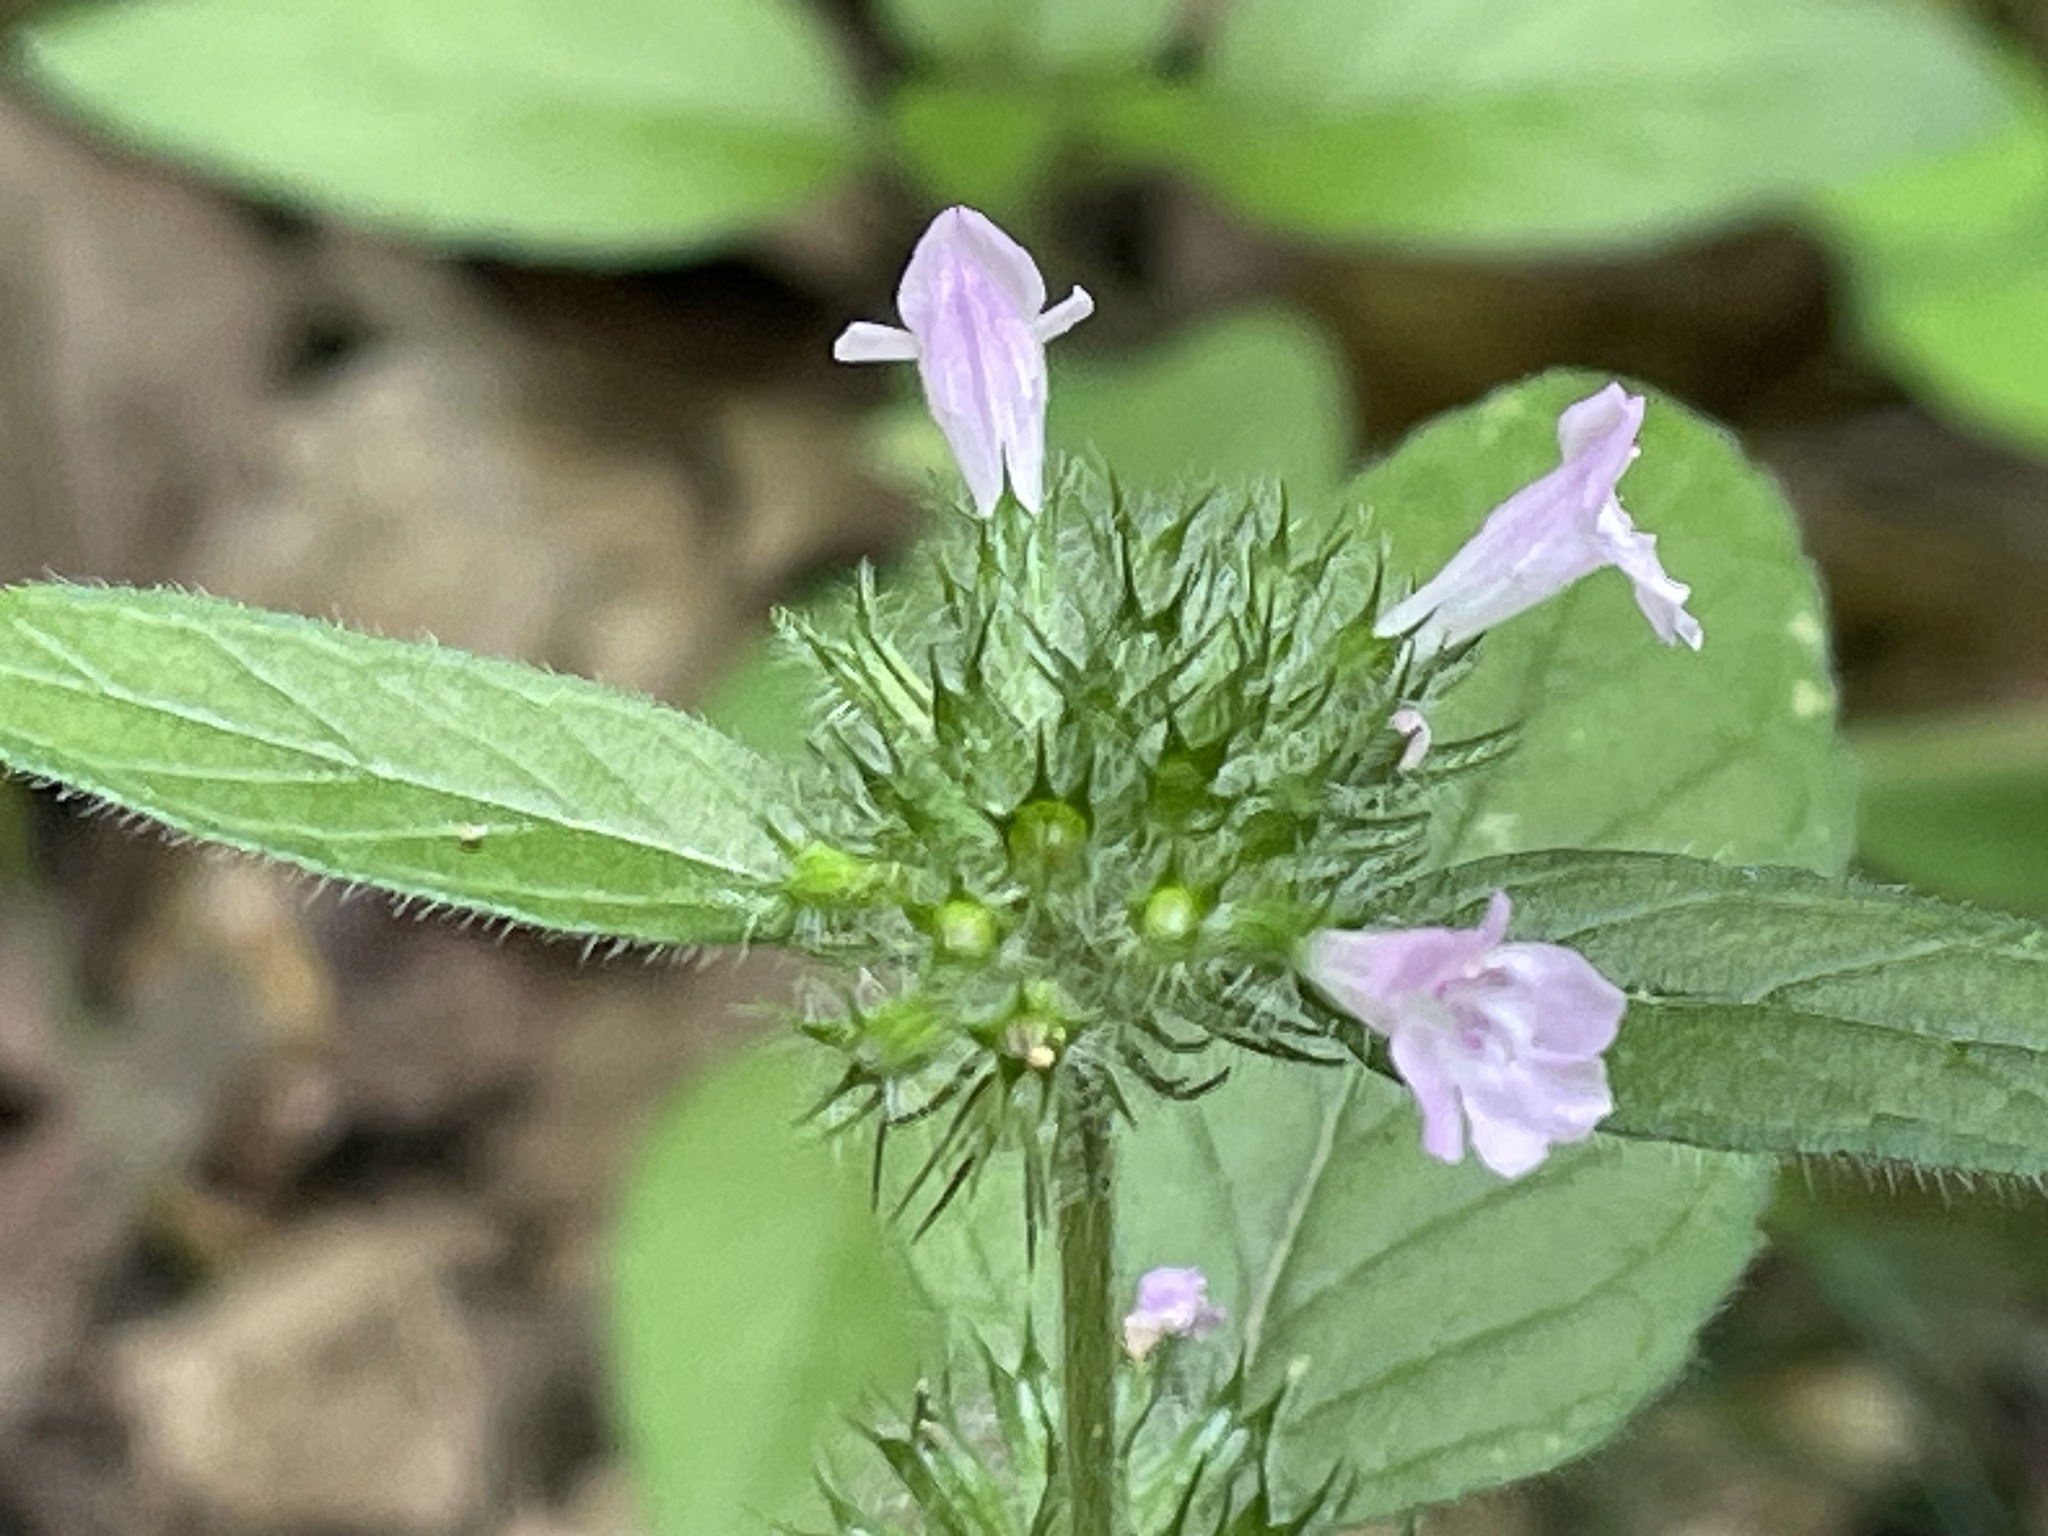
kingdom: Plantae
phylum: Tracheophyta
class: Magnoliopsida
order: Lamiales
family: Lamiaceae
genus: Clinopodium
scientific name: Clinopodium vulgare
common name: Wild basil
